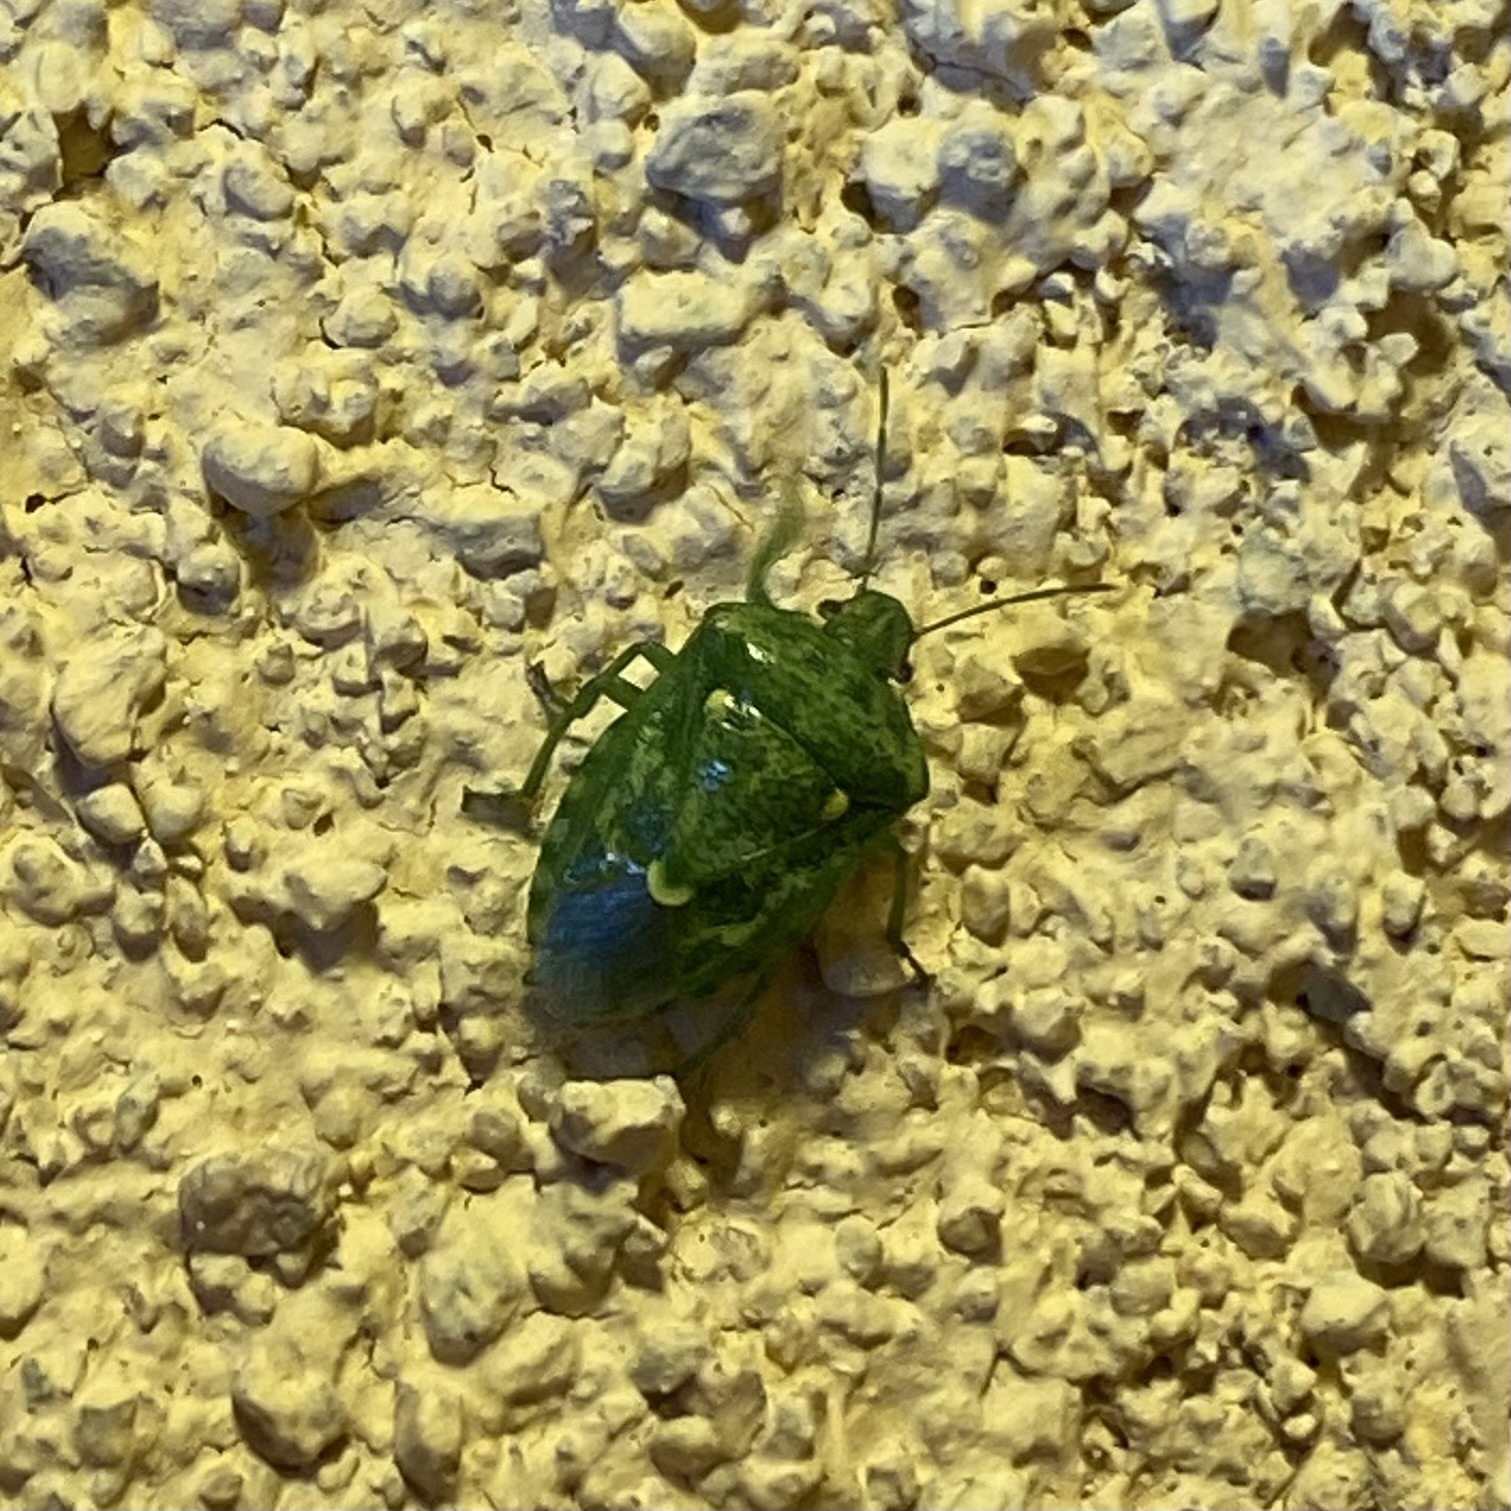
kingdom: Animalia
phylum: Arthropoda
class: Insecta
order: Hemiptera
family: Pentatomidae
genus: Banasa
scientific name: Banasa euchlora
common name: Cedar berry bug
